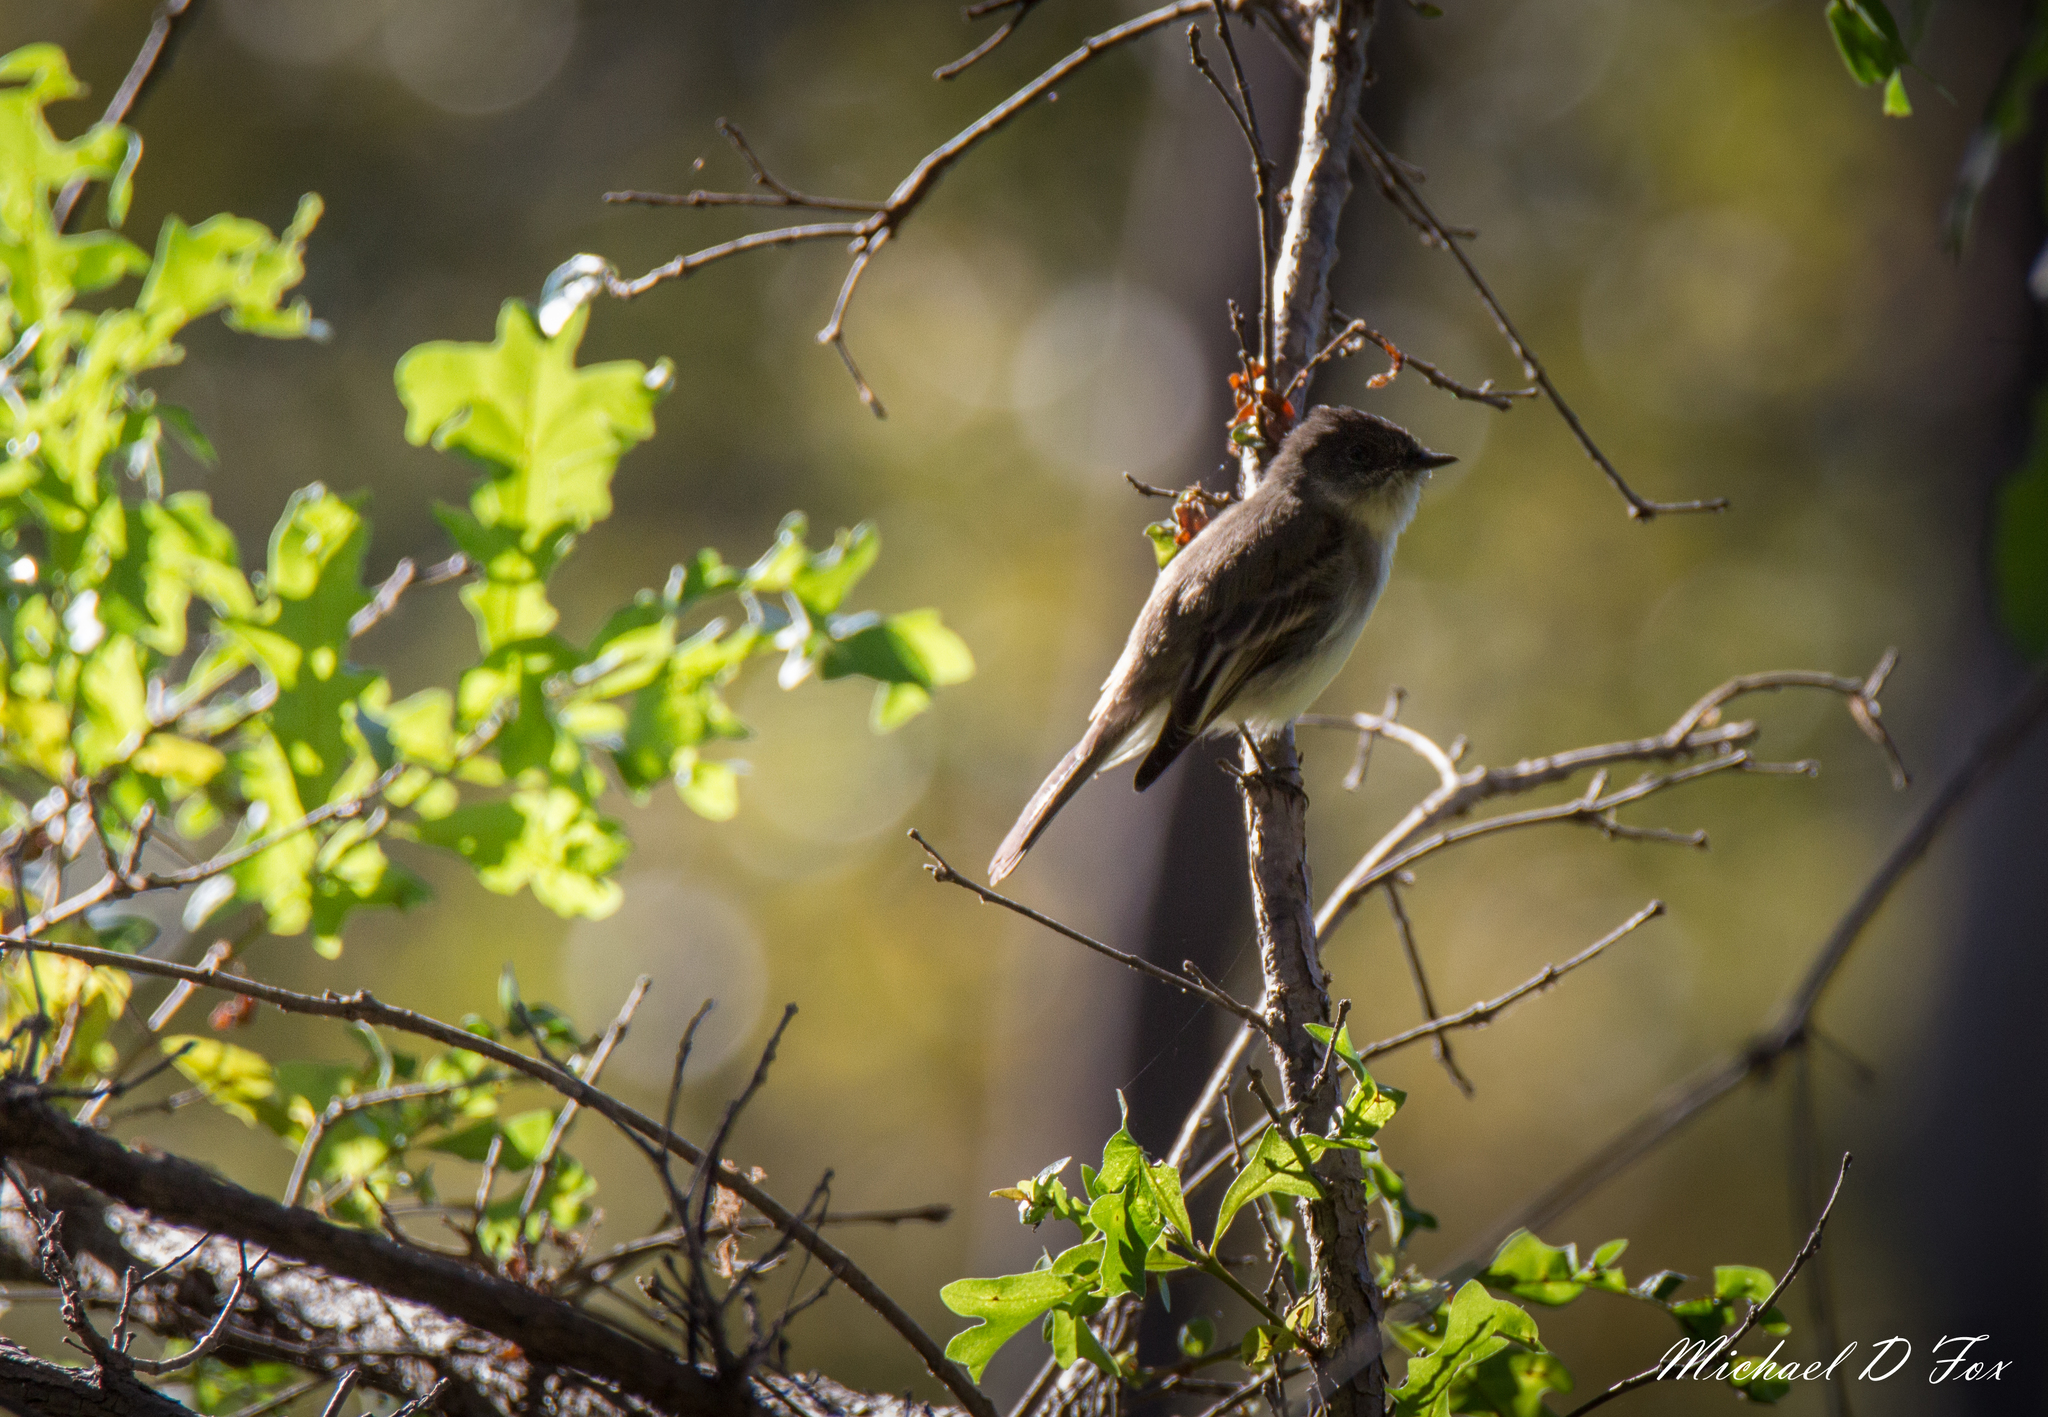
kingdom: Animalia
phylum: Chordata
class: Aves
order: Passeriformes
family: Tyrannidae
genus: Sayornis
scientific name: Sayornis phoebe
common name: Eastern phoebe
